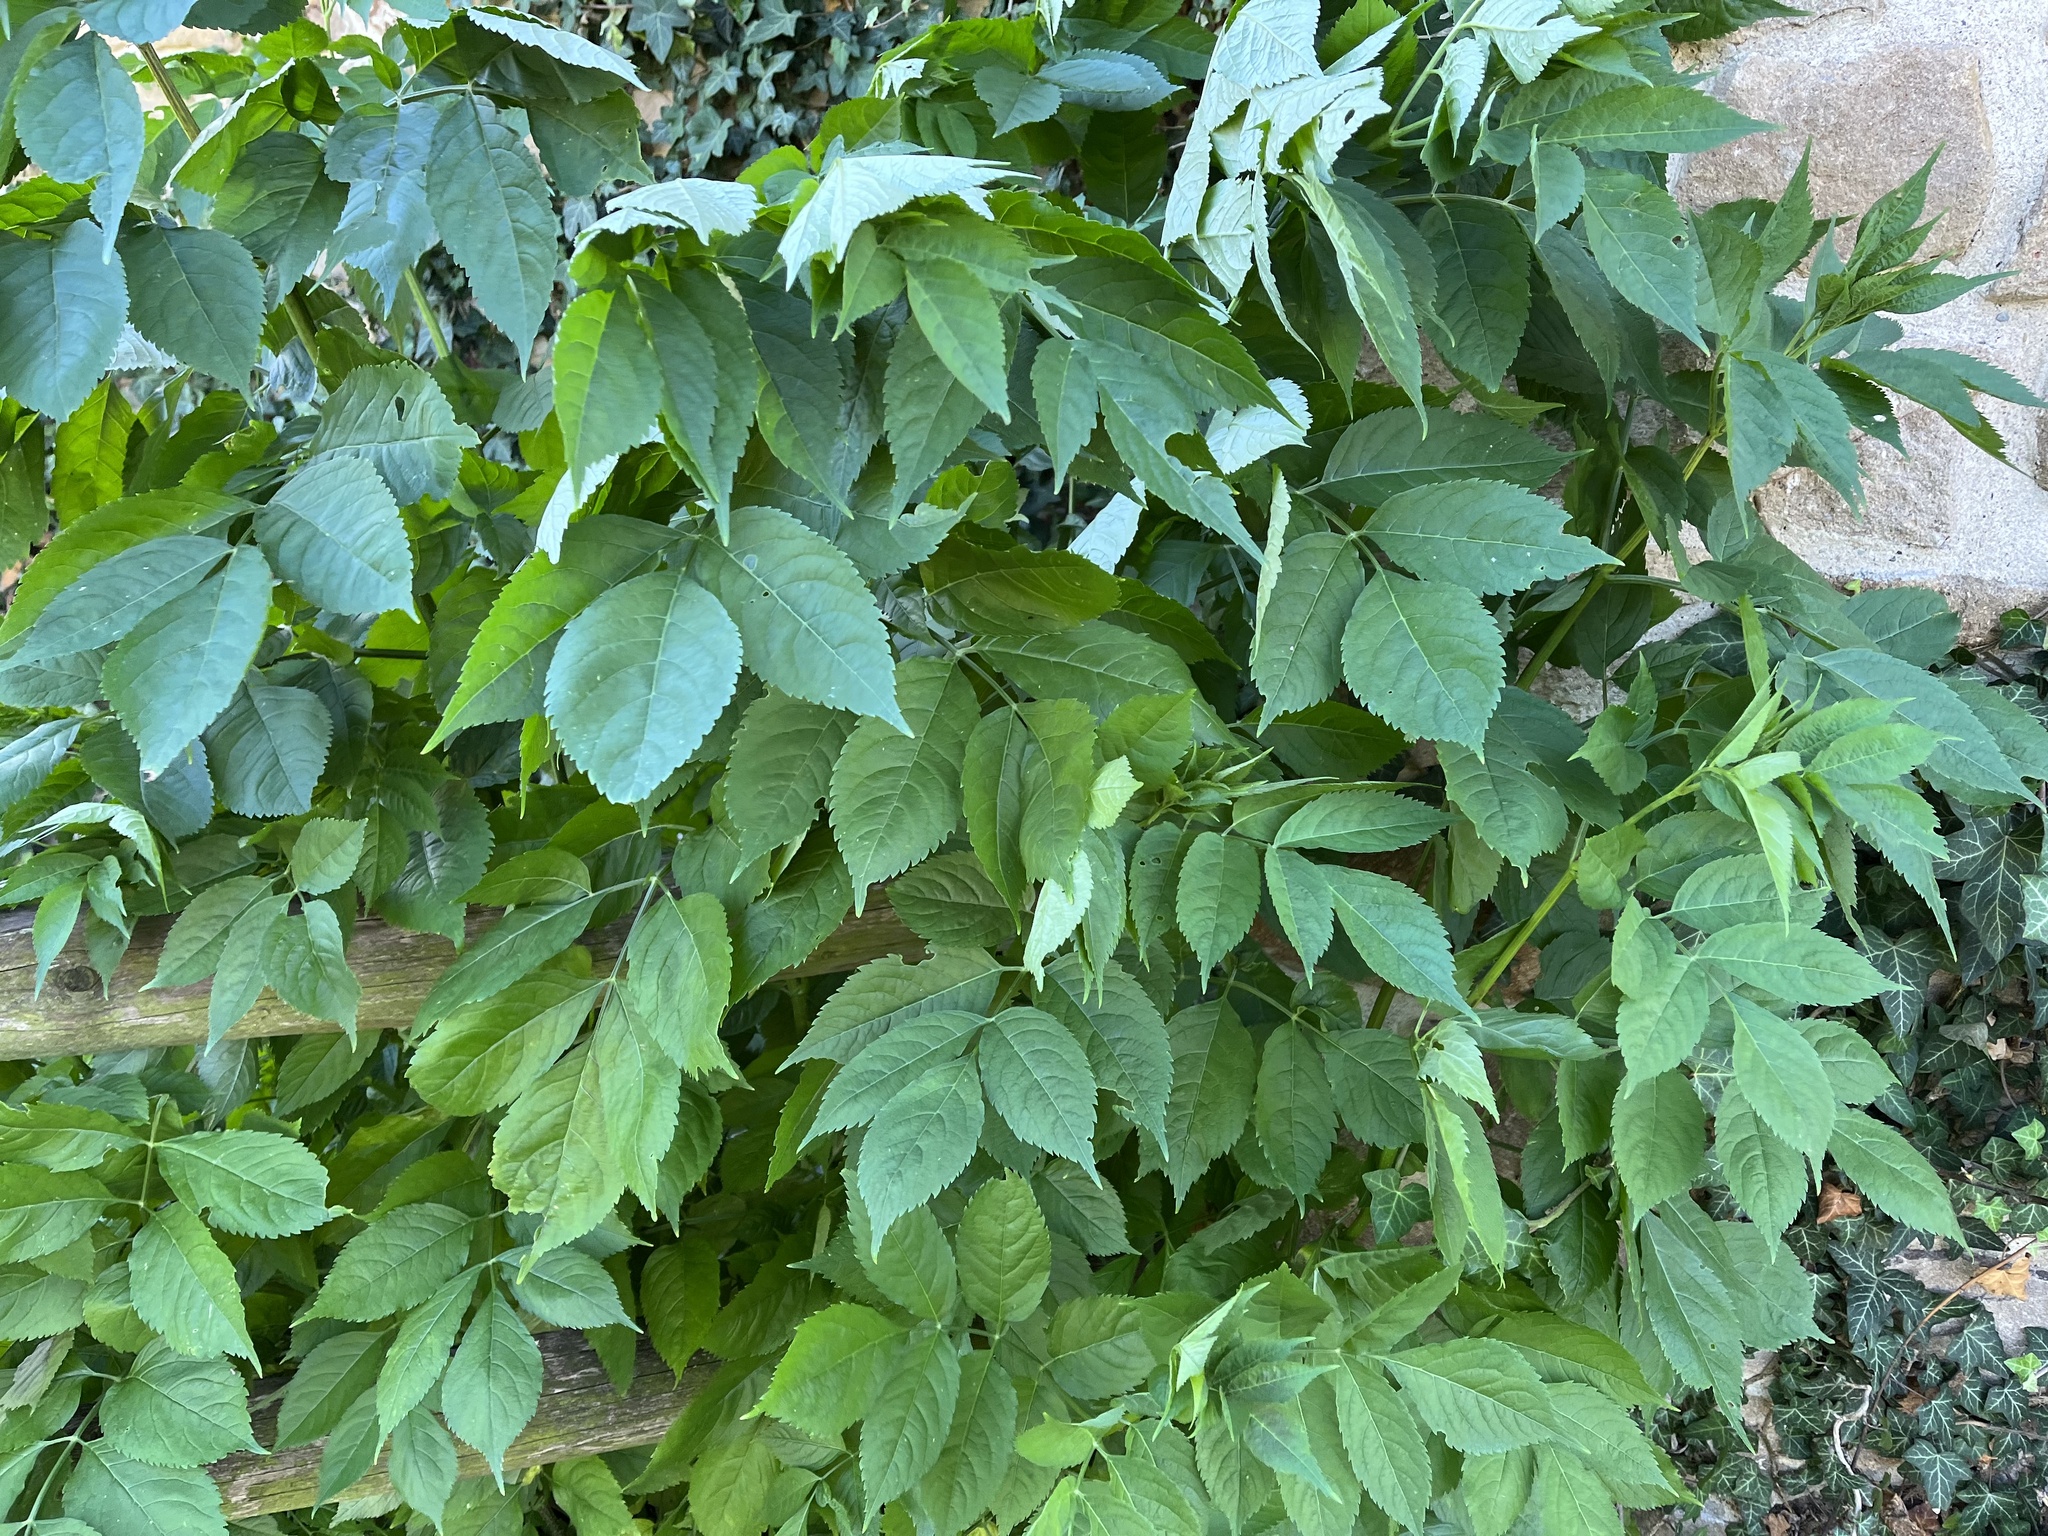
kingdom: Plantae
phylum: Tracheophyta
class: Magnoliopsida
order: Dipsacales
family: Viburnaceae
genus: Sambucus
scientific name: Sambucus nigra
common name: Elder
